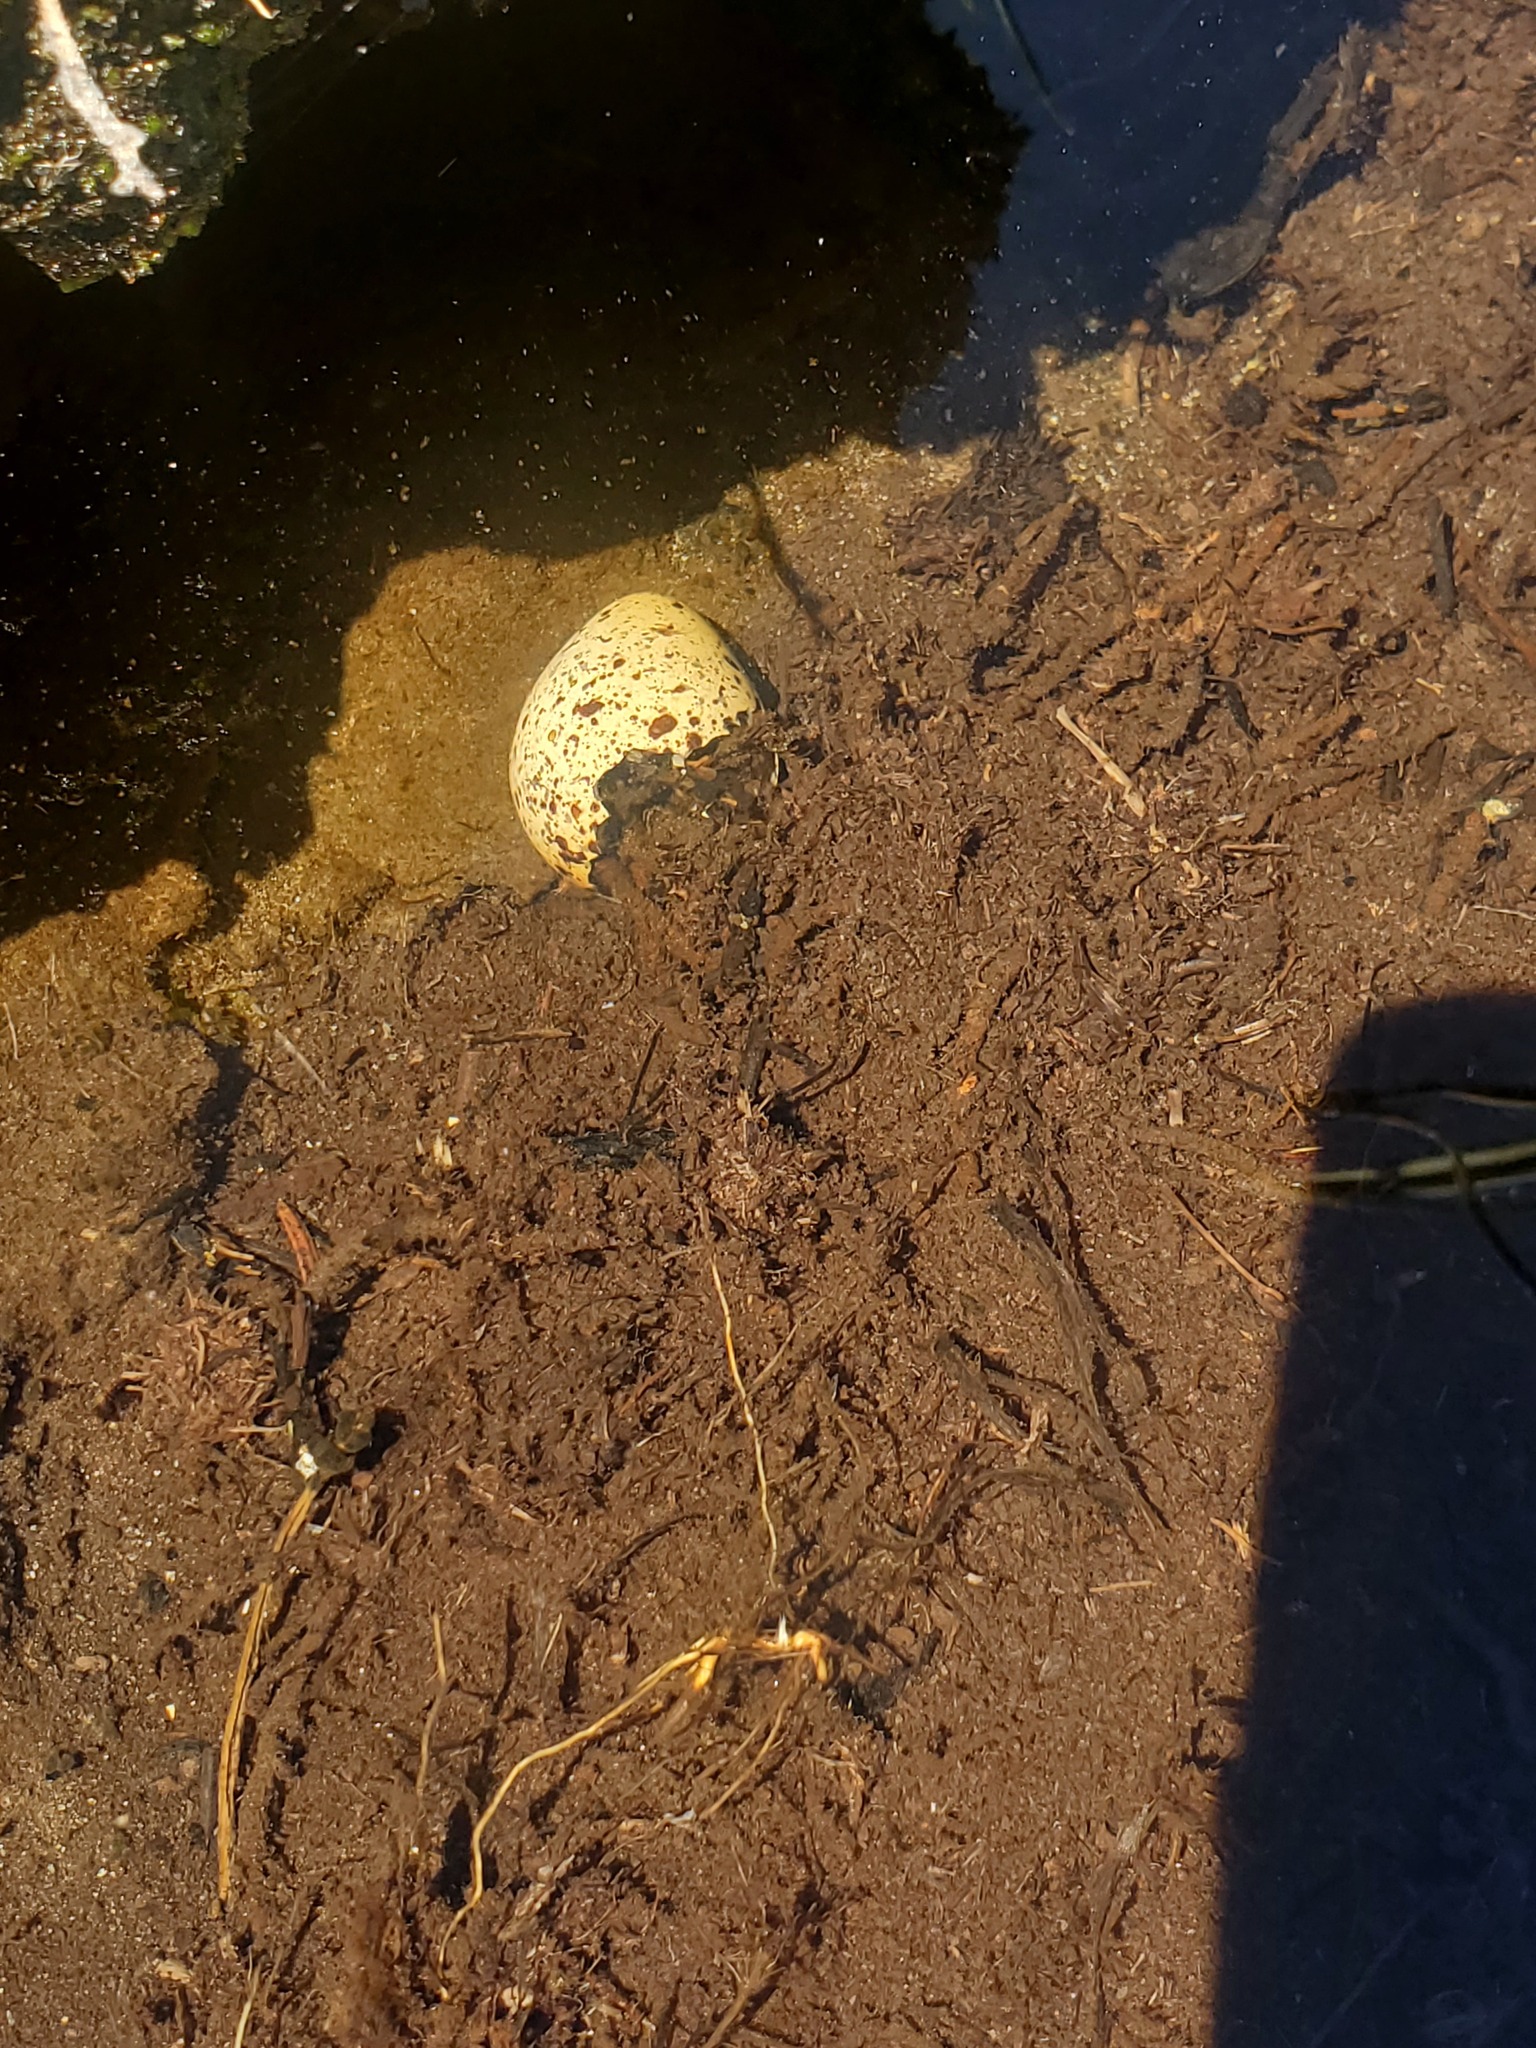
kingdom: Animalia
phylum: Chordata
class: Aves
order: Charadriiformes
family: Scolopacidae
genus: Actitis
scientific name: Actitis macularius
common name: Spotted sandpiper
